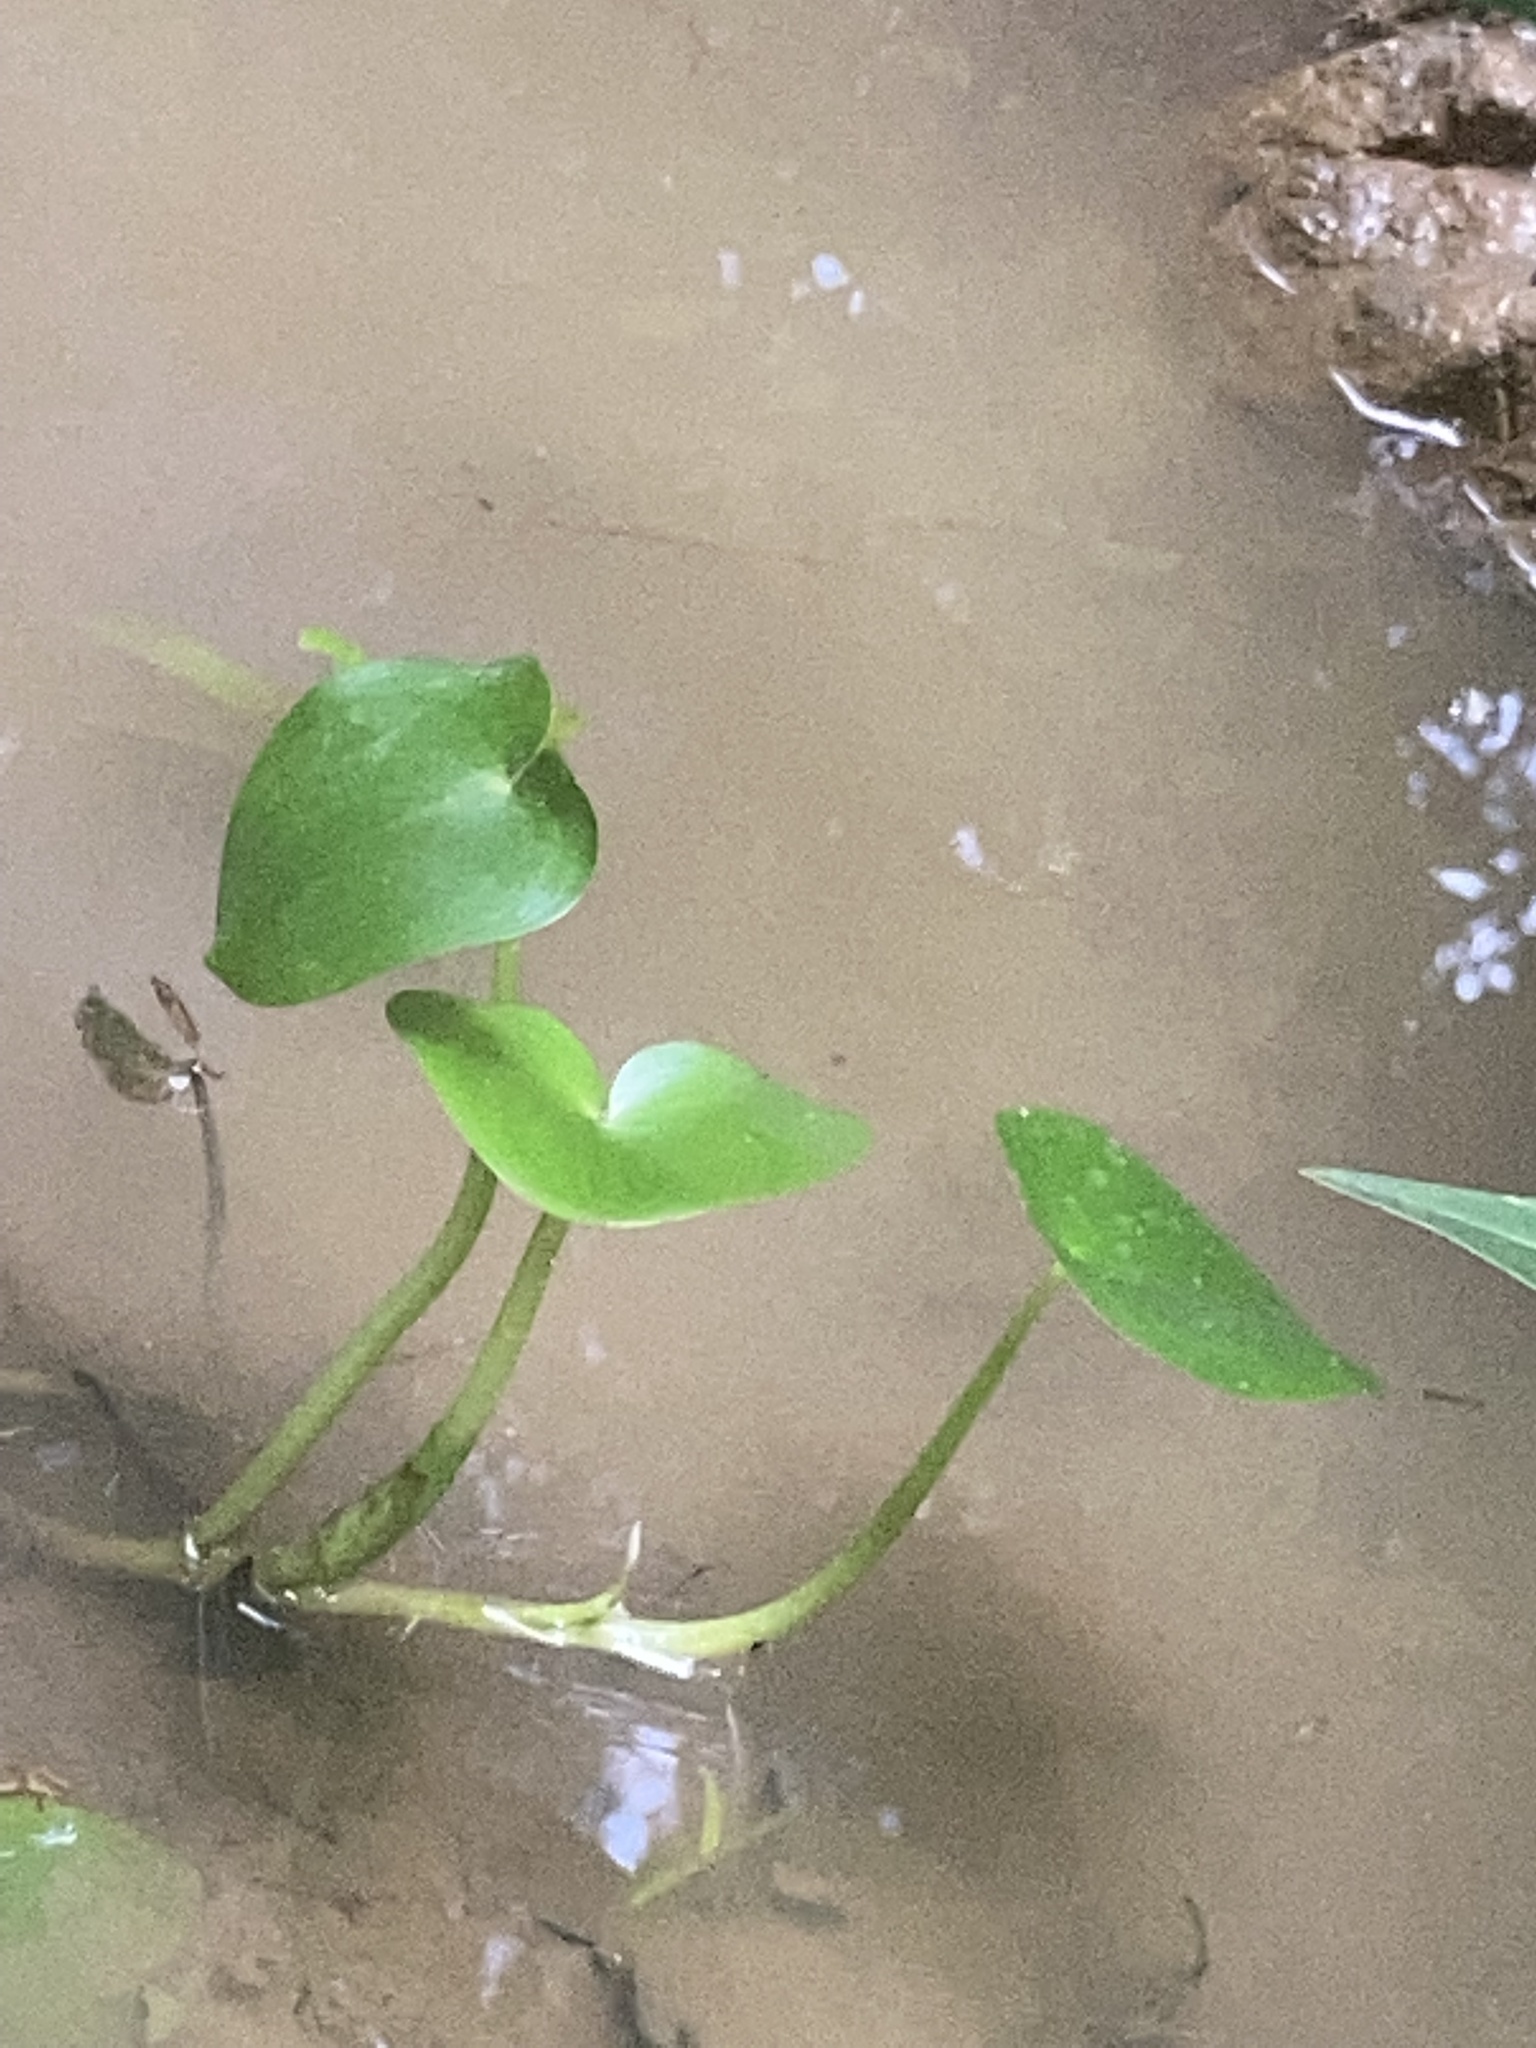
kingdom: Plantae
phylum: Tracheophyta
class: Liliopsida
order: Commelinales
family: Pontederiaceae
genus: Heteranthera
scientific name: Heteranthera rotundifolia
